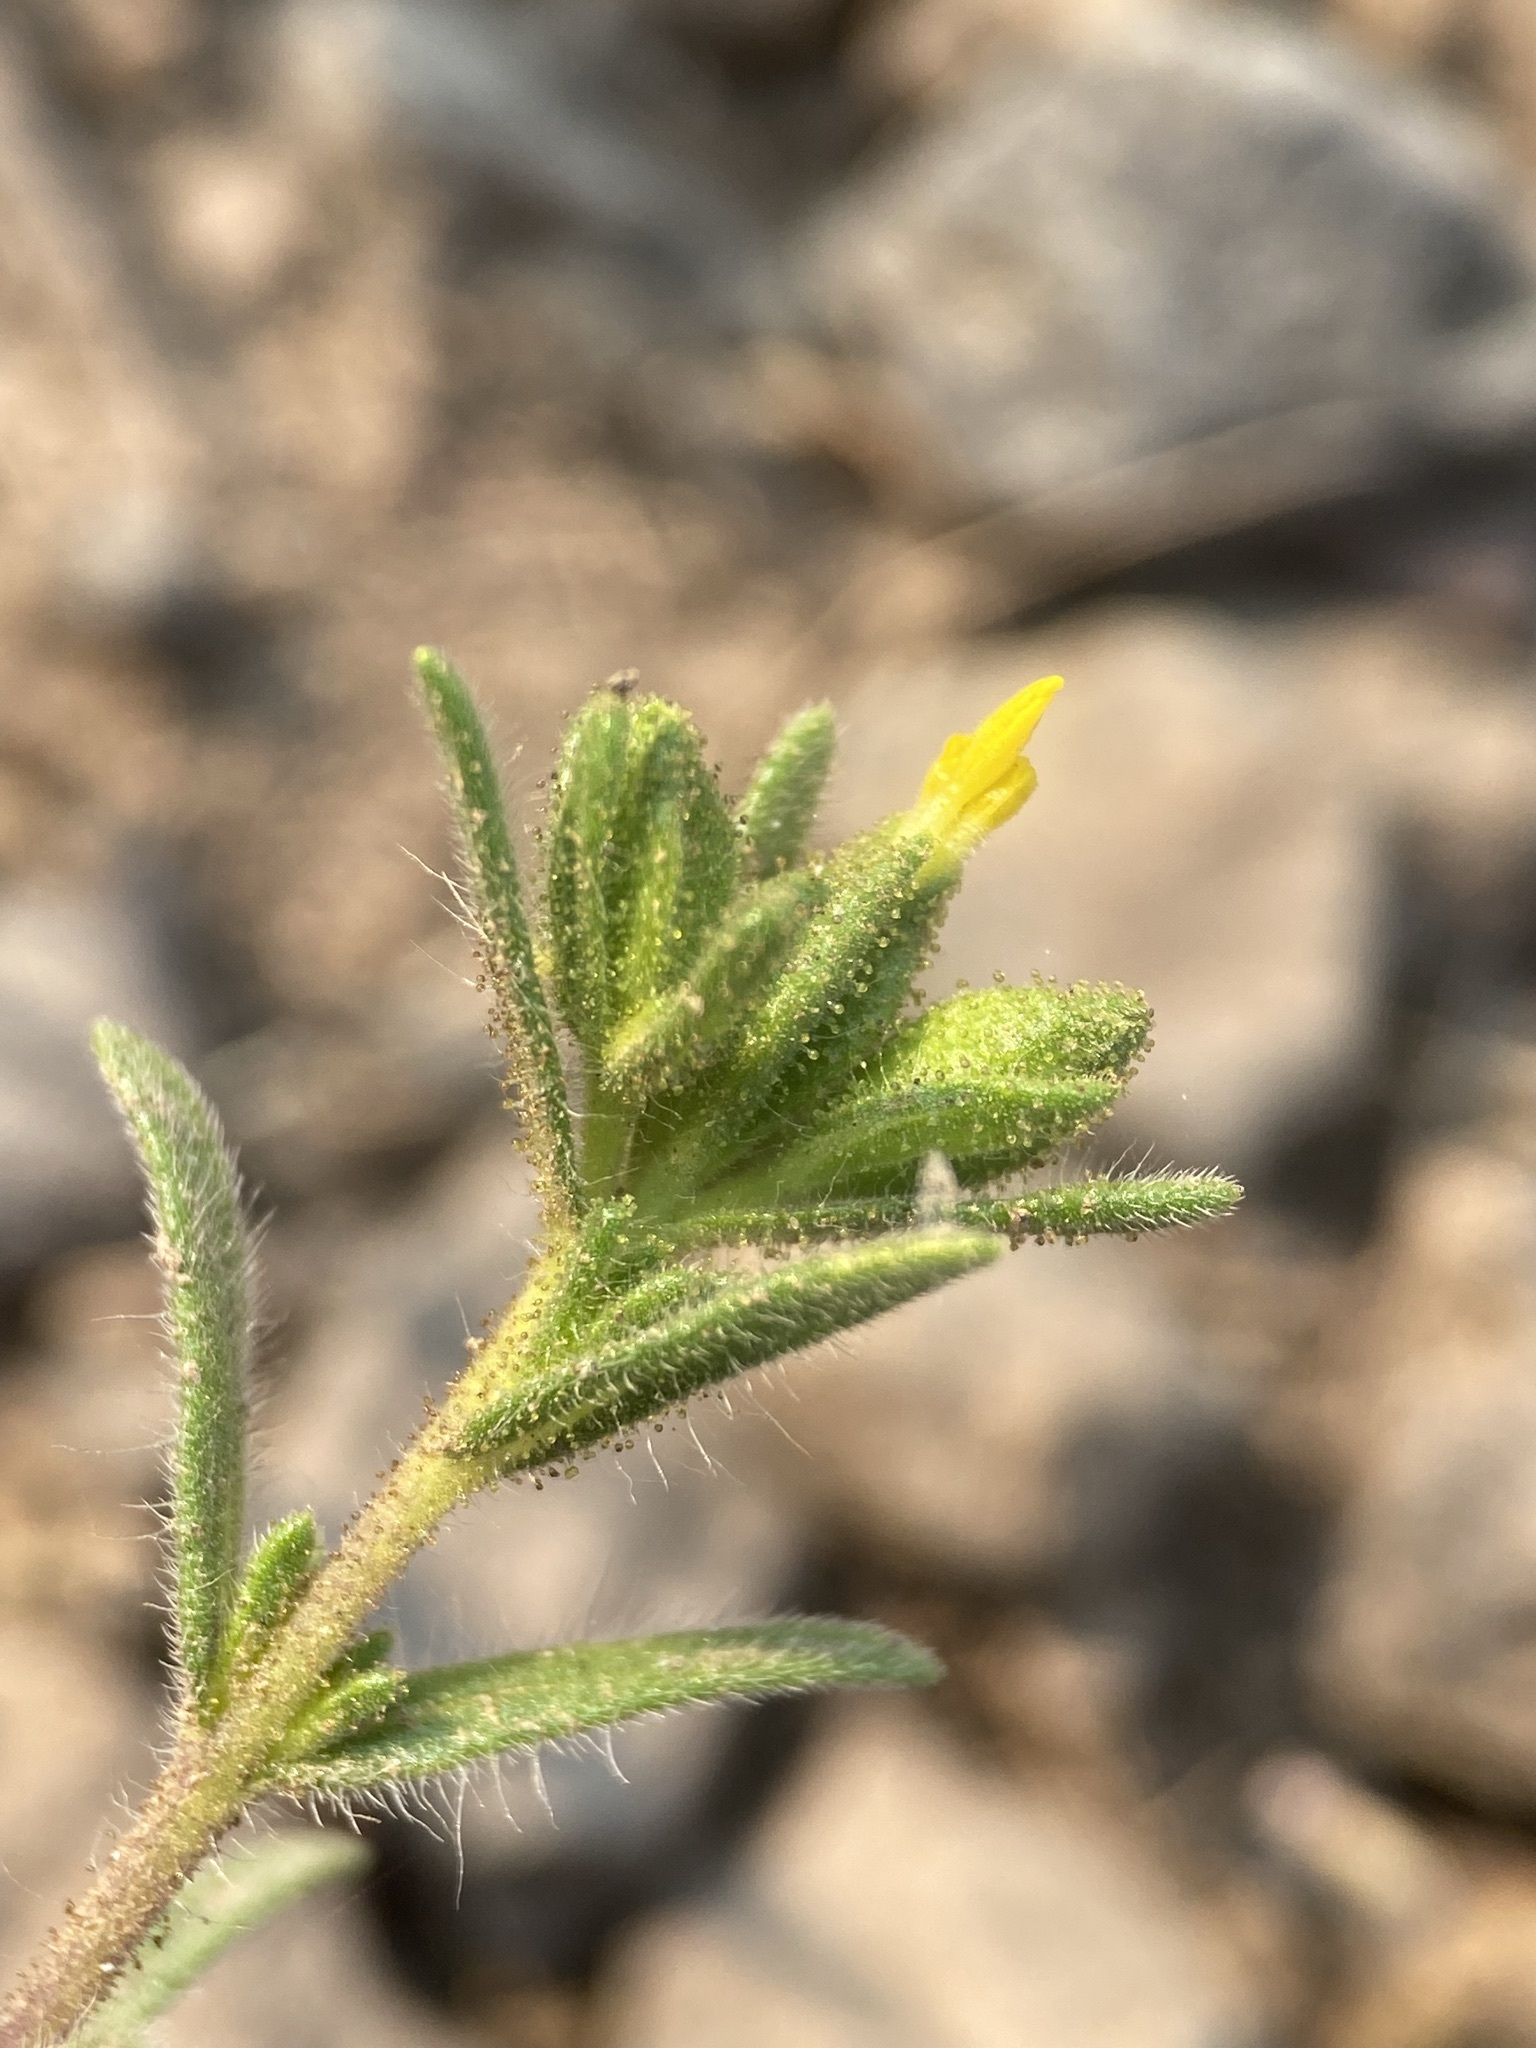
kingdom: Plantae
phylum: Tracheophyta
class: Magnoliopsida
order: Asterales
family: Asteraceae
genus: Madia
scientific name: Madia glomerata
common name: Mountain tarweed
